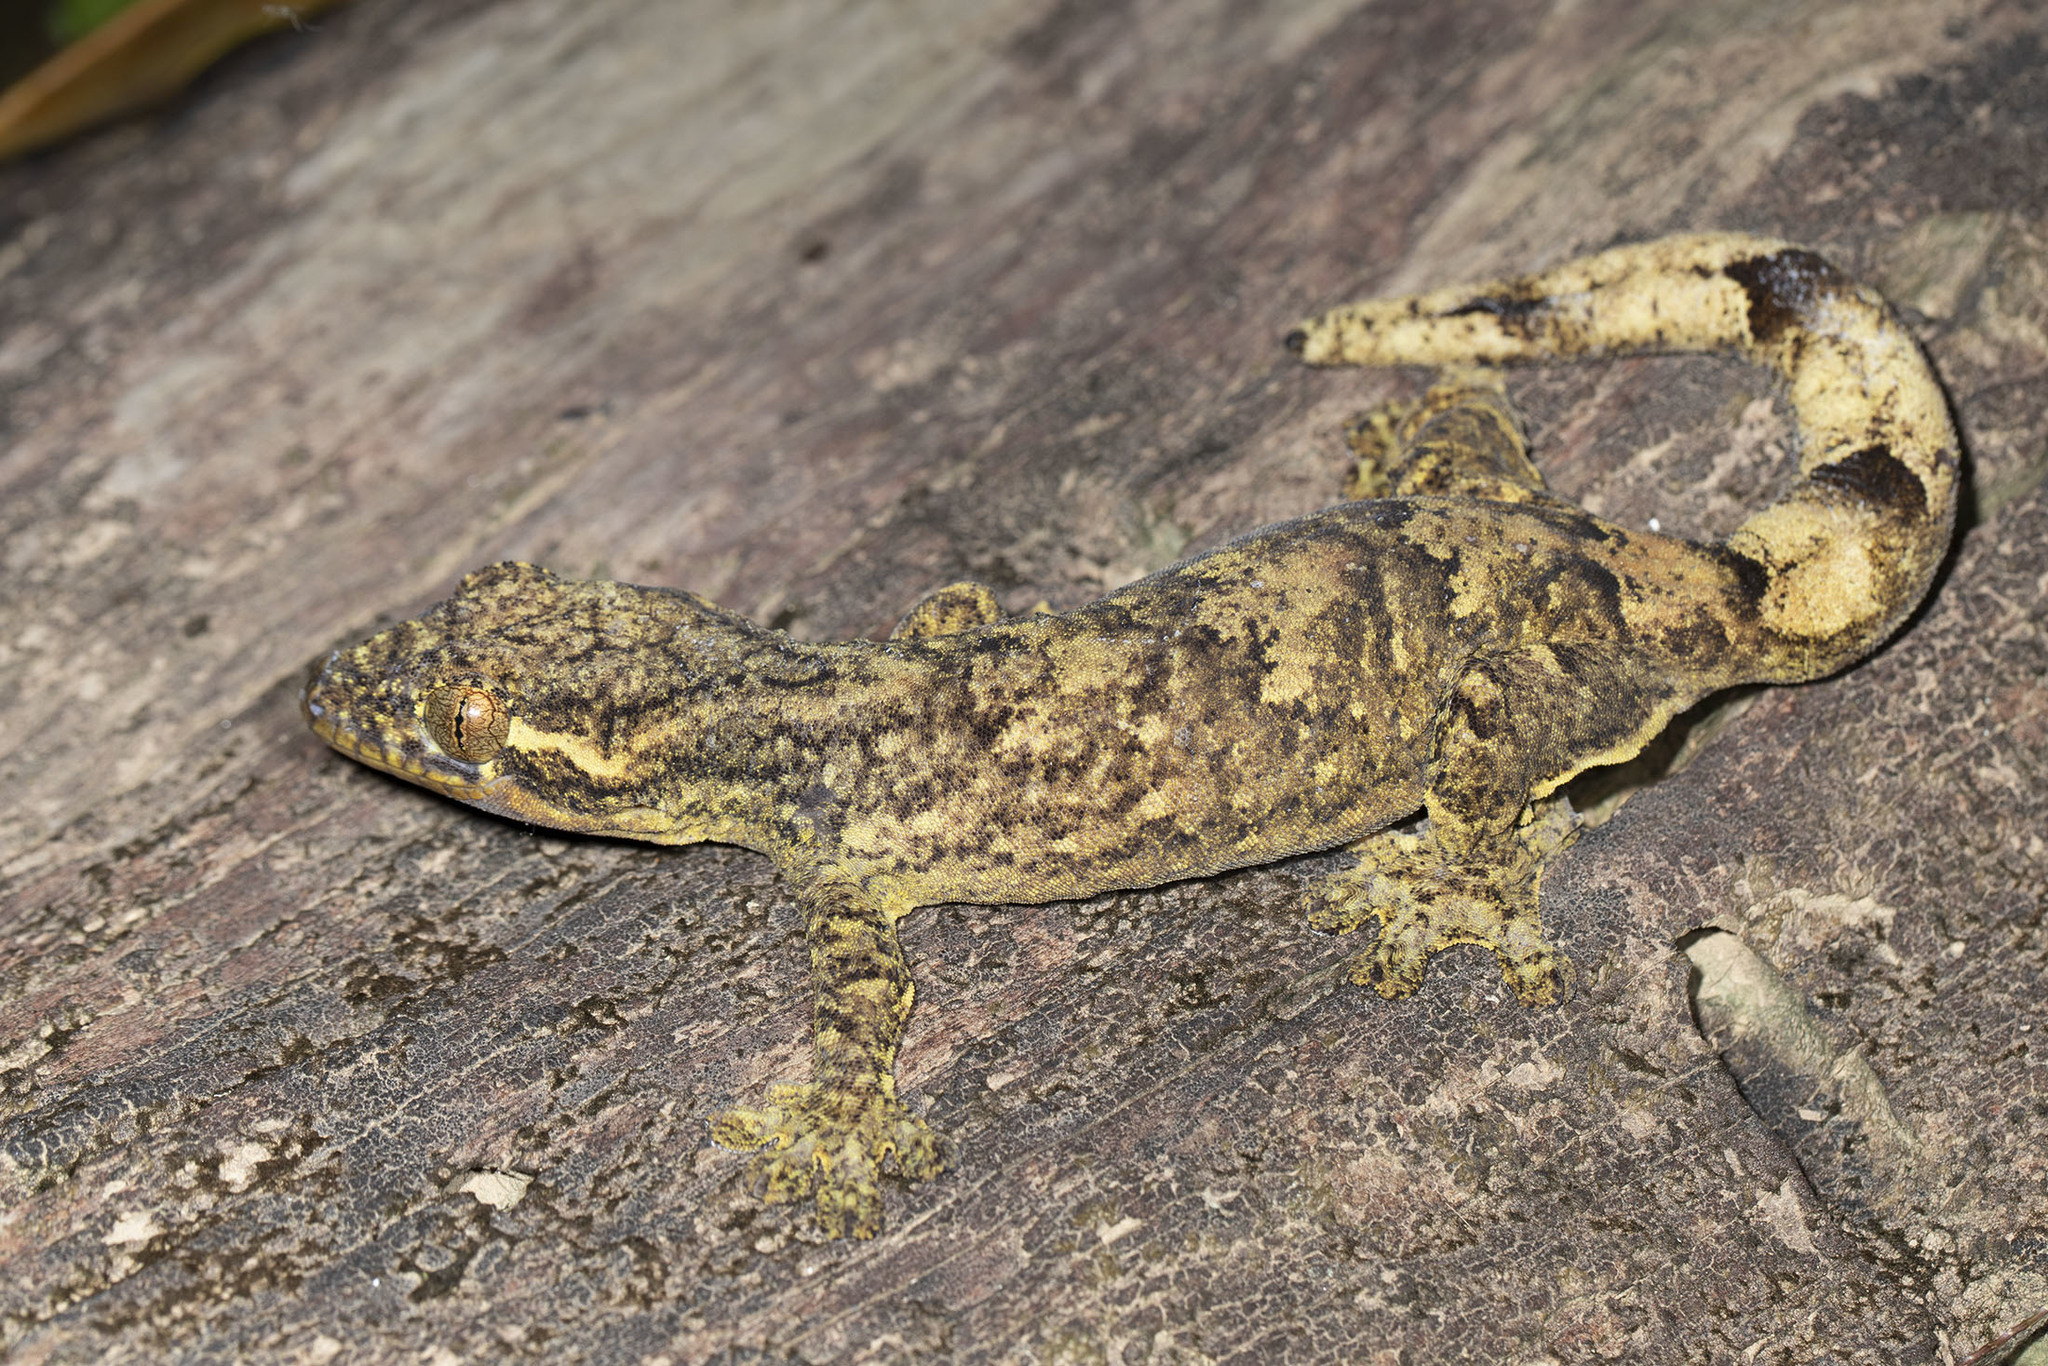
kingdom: Animalia
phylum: Chordata
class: Squamata
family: Phyllodactylidae
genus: Thecadactylus
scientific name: Thecadactylus solimoensis
